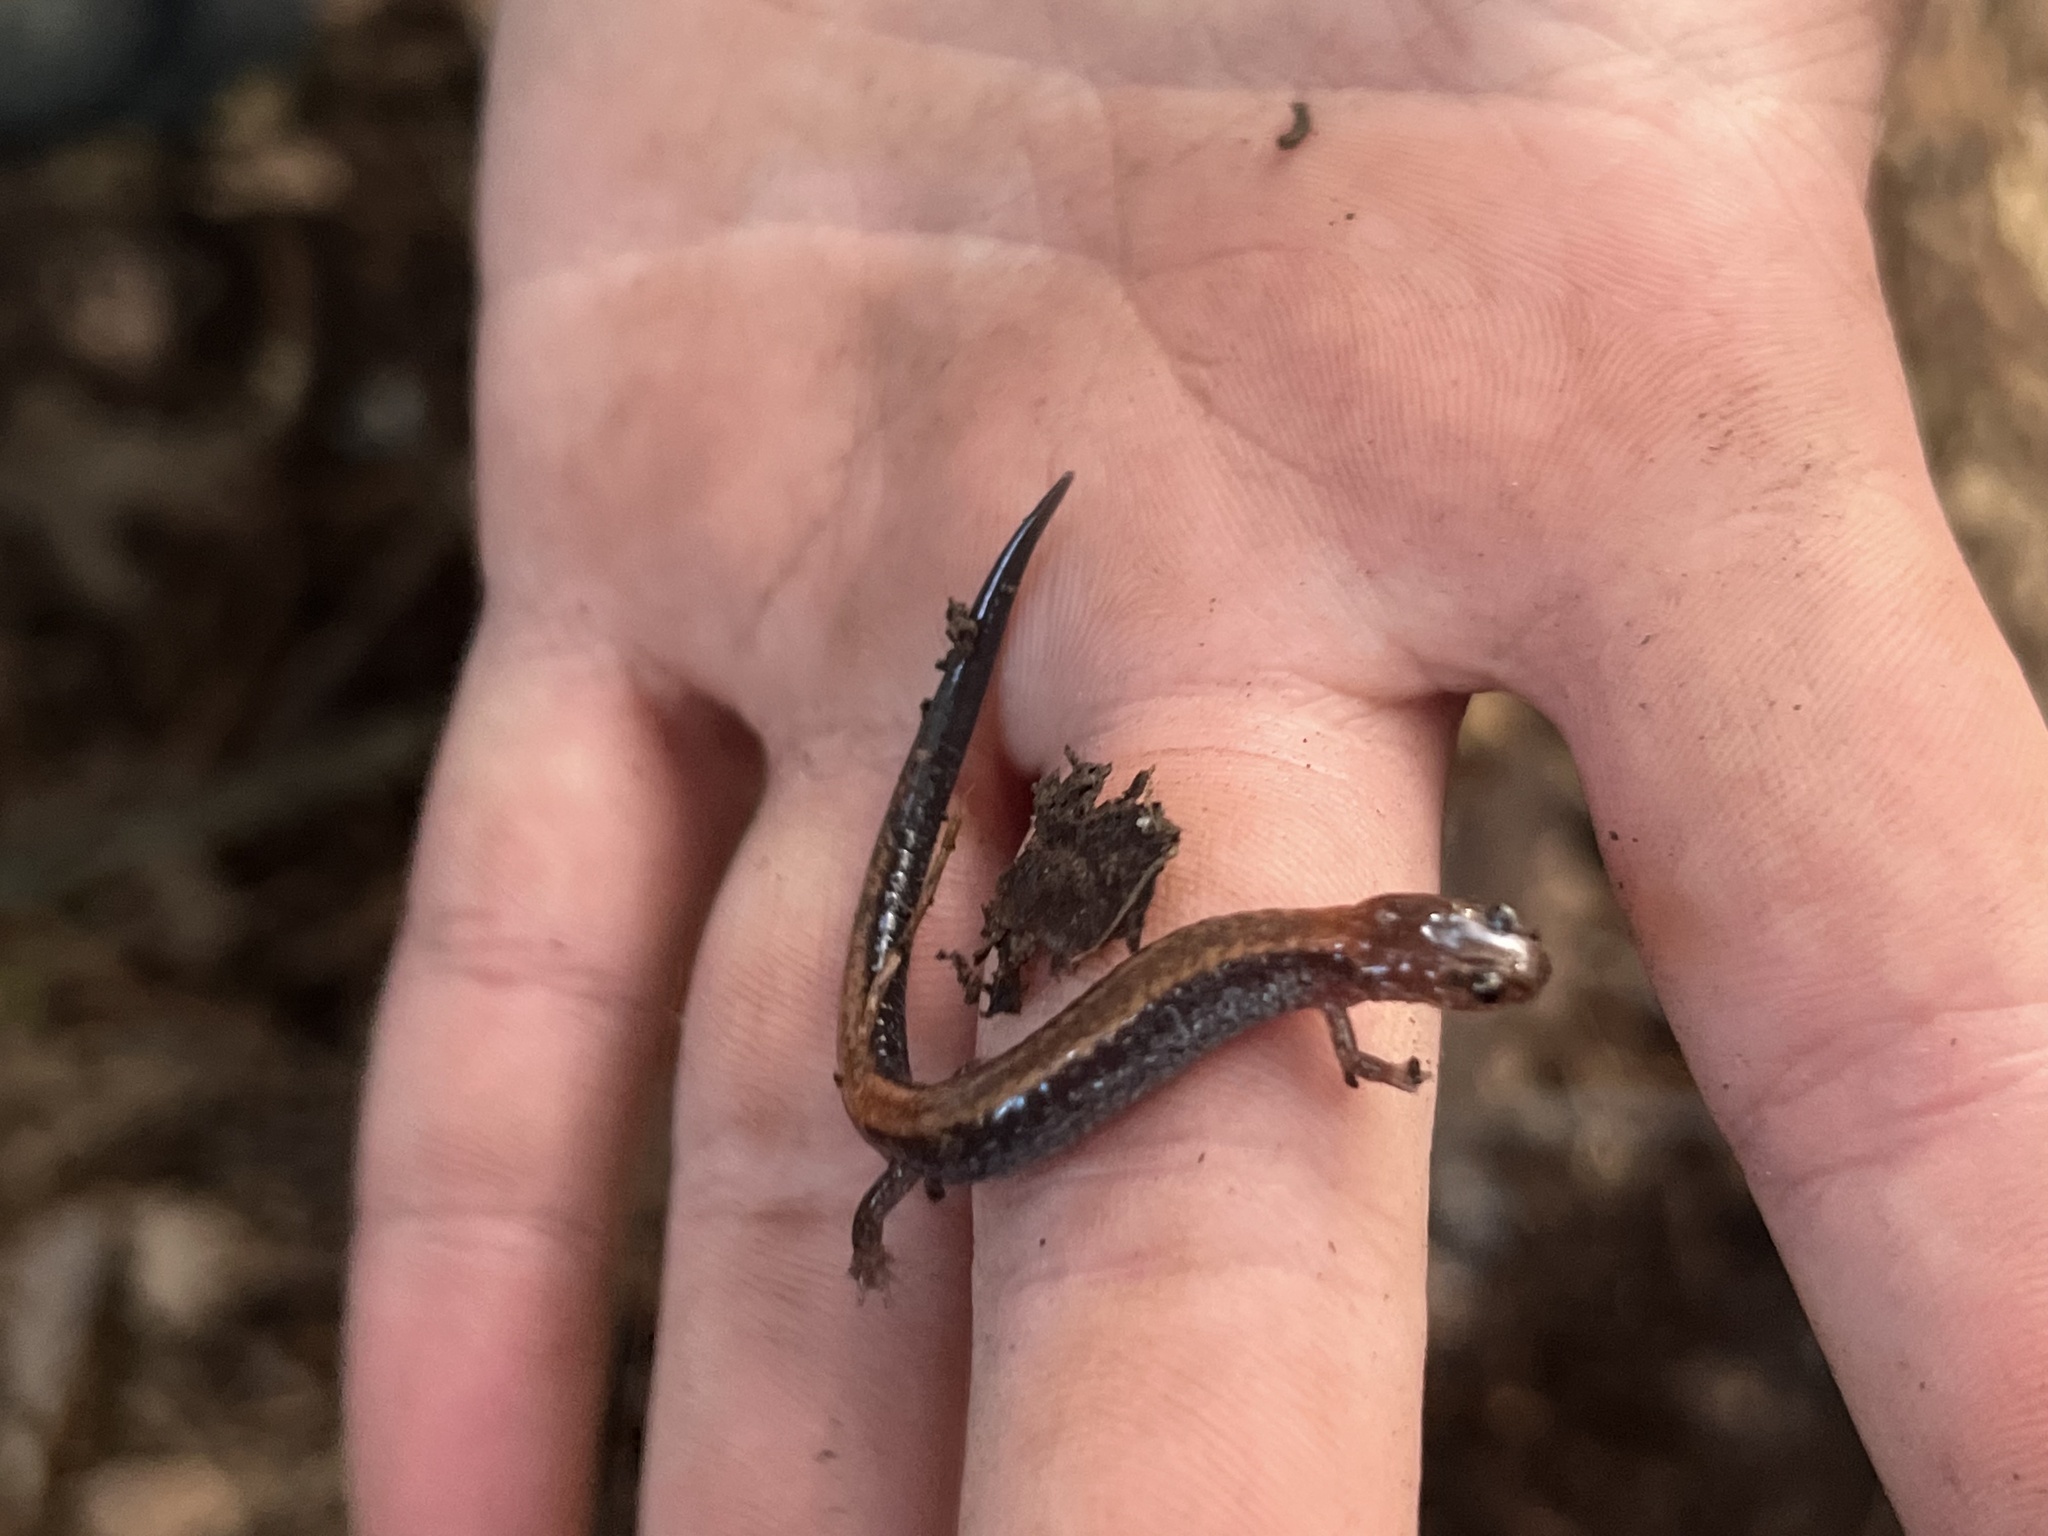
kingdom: Animalia
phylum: Chordata
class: Amphibia
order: Caudata
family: Plethodontidae
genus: Plethodon
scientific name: Plethodon cinereus
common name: Redback salamander
